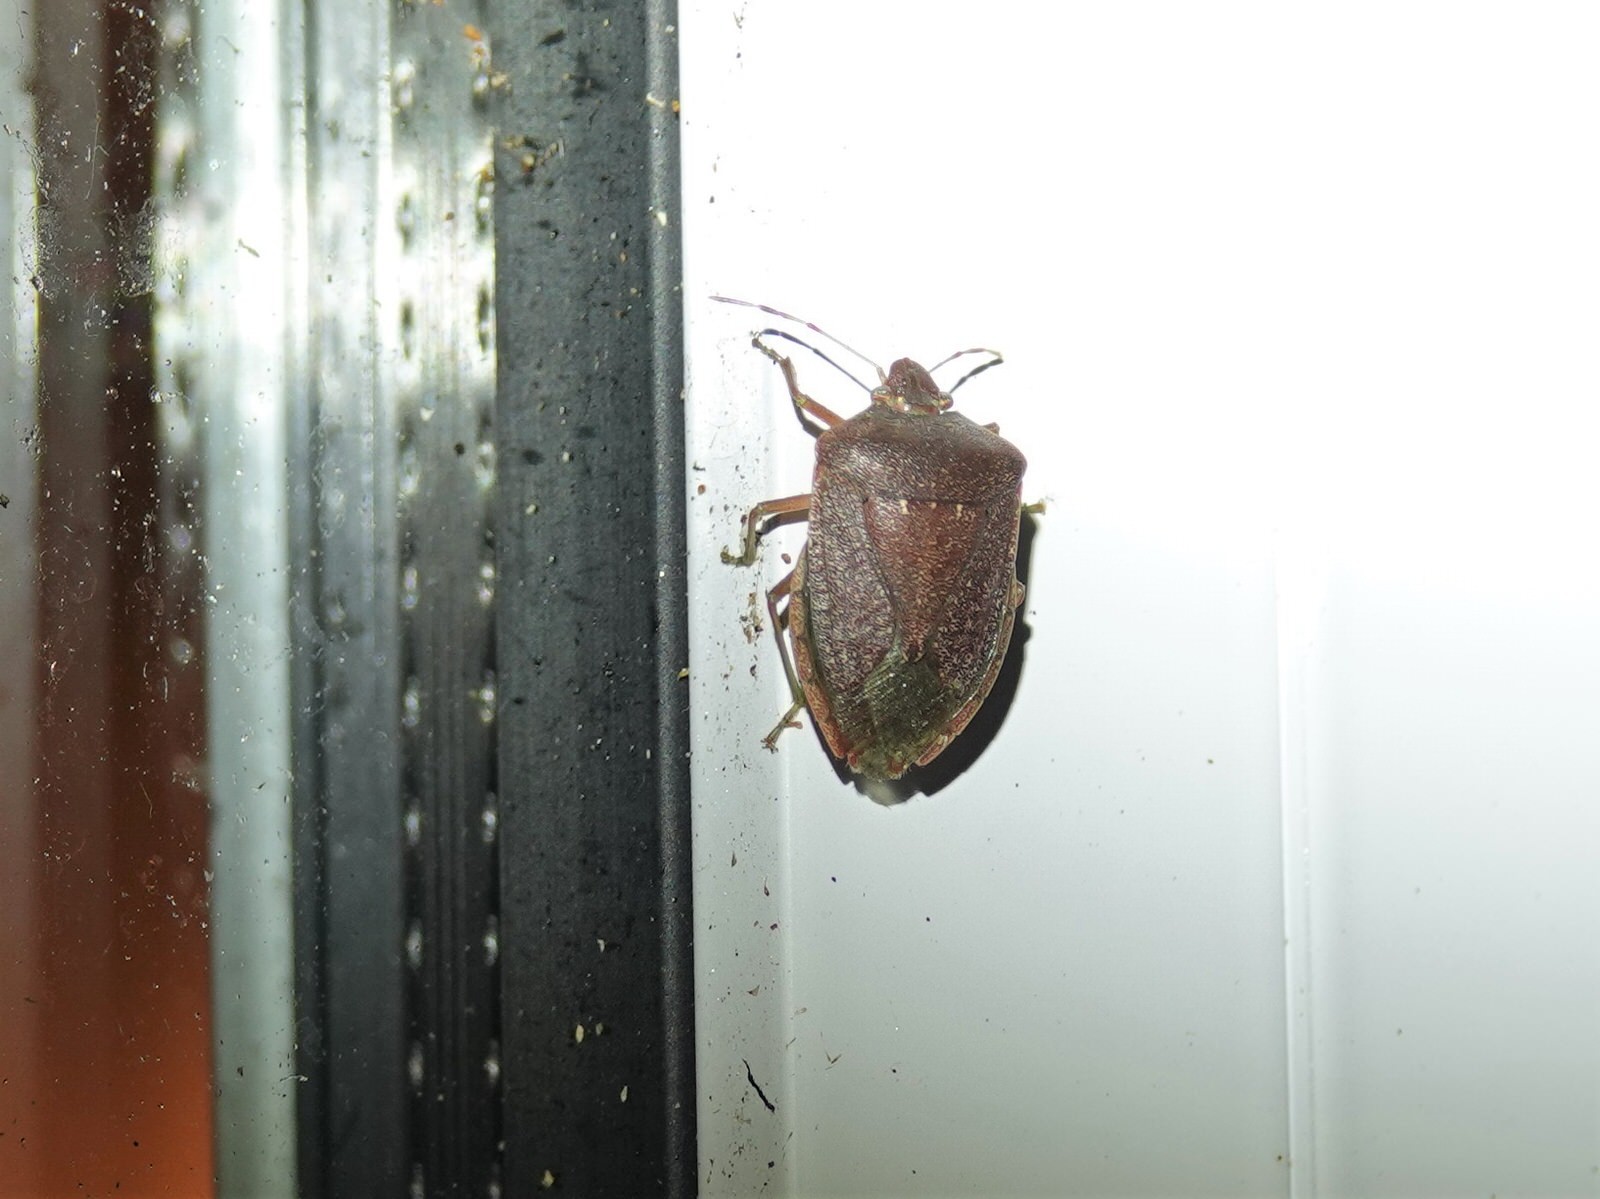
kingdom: Animalia
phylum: Arthropoda
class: Insecta
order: Hemiptera
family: Pentatomidae
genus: Nezara
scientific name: Nezara viridula
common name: Southern green stink bug
